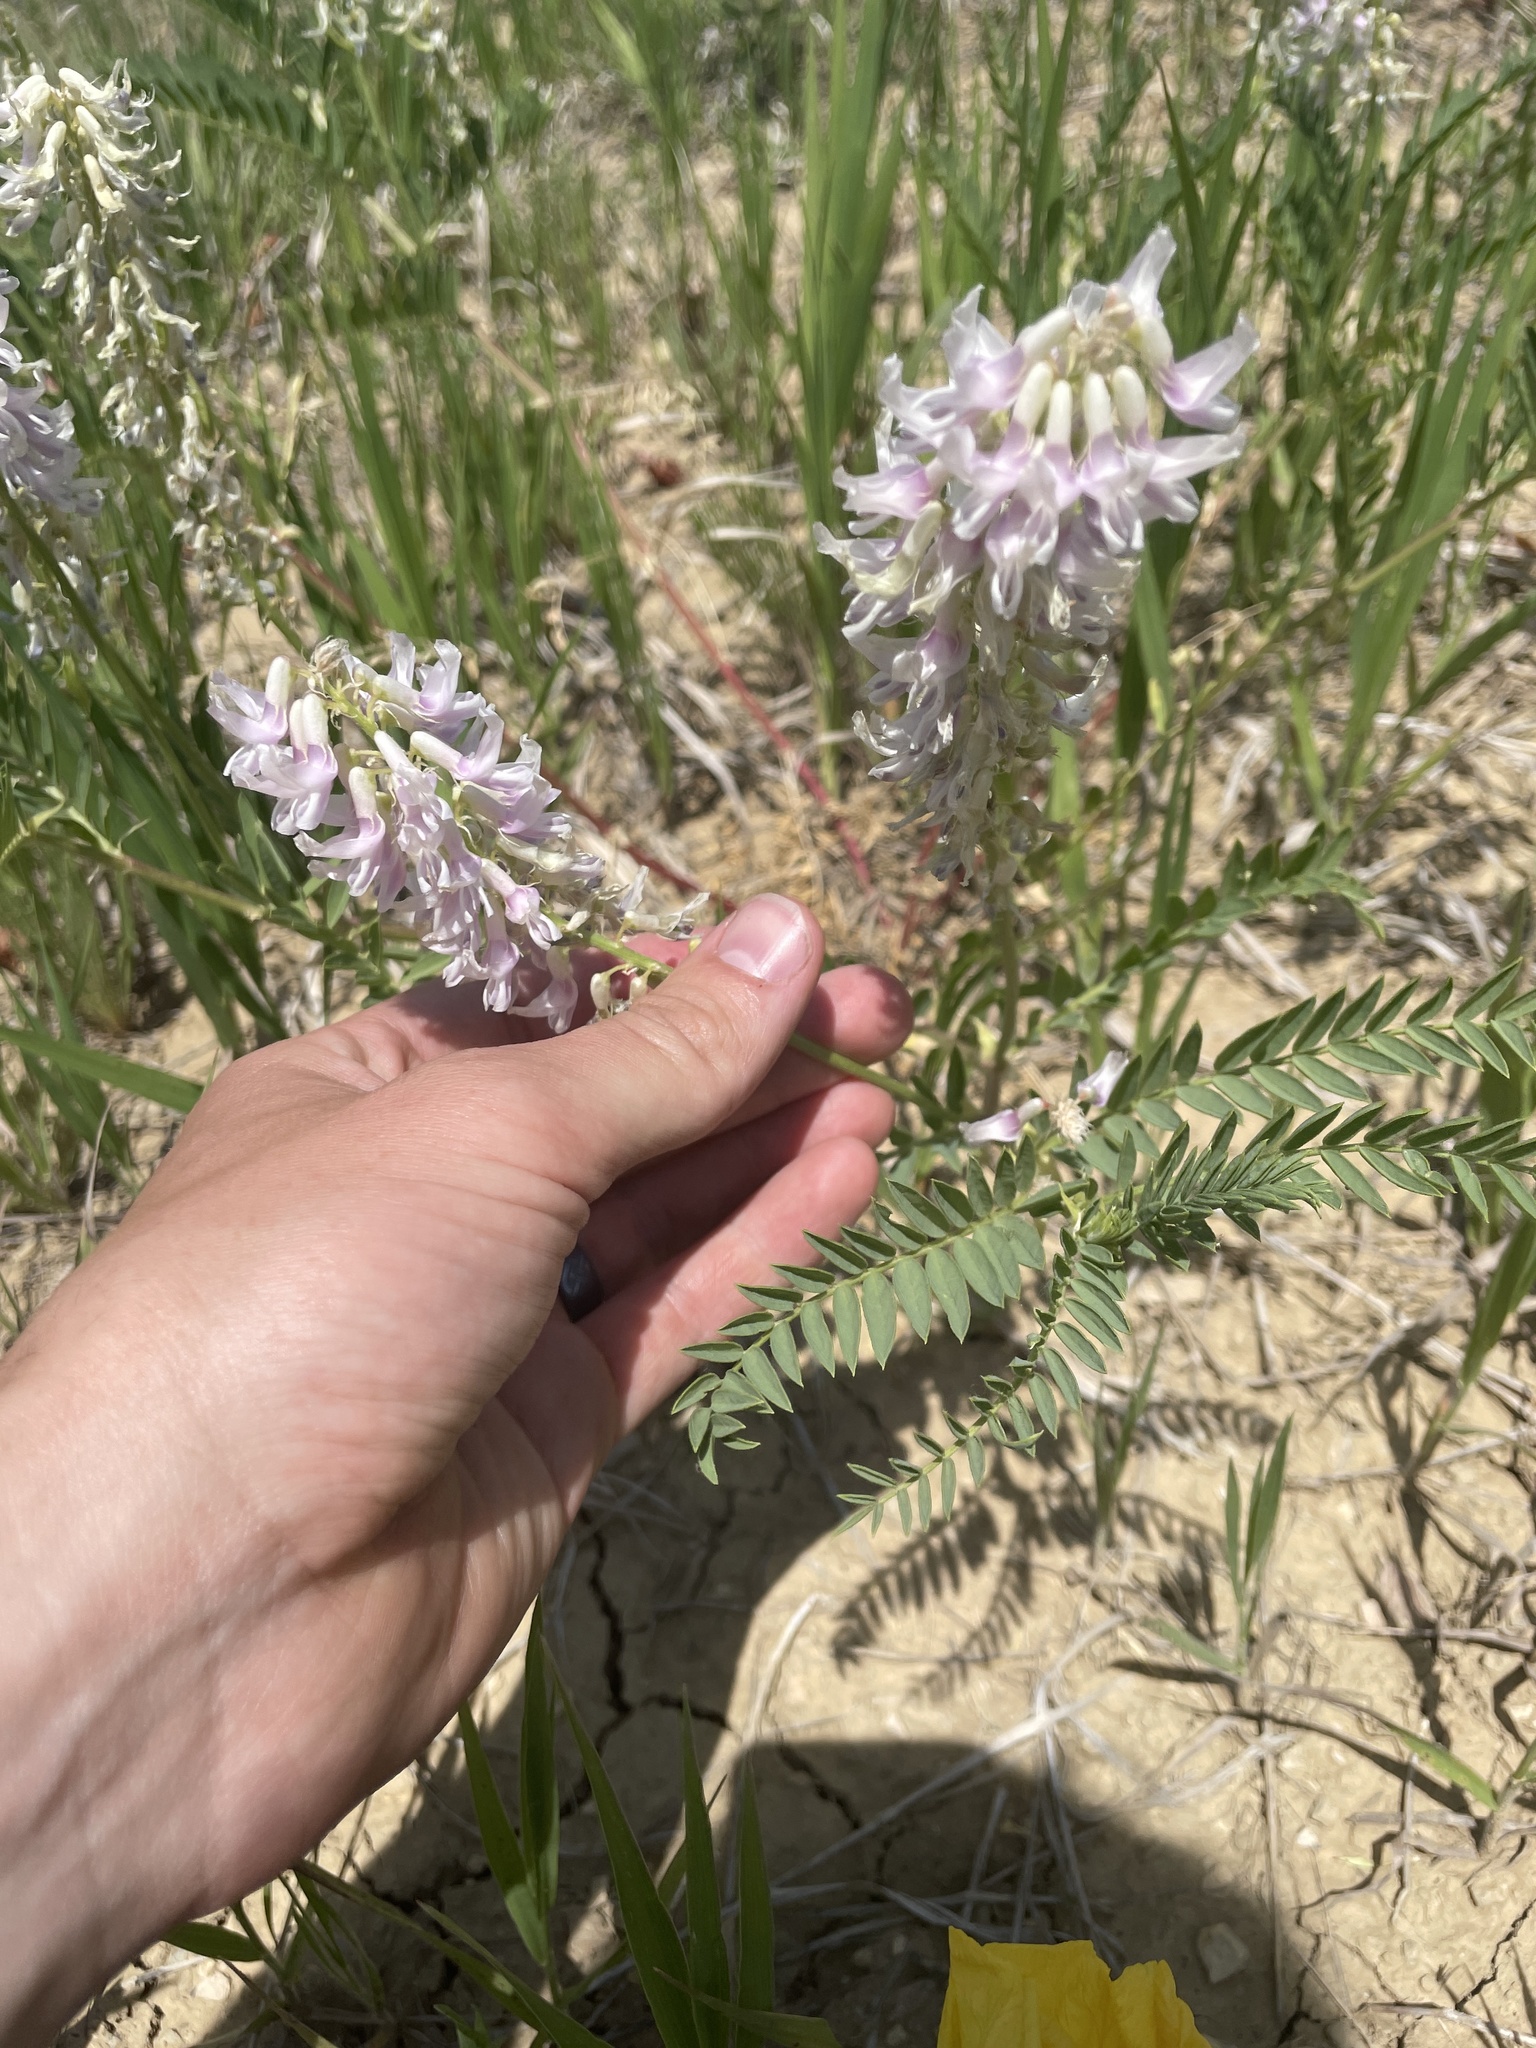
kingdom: Plantae
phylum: Tracheophyta
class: Magnoliopsida
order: Fabales
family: Fabaceae
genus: Astragalus
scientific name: Astragalus bisulcatus
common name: Two-groove milk-vetch
